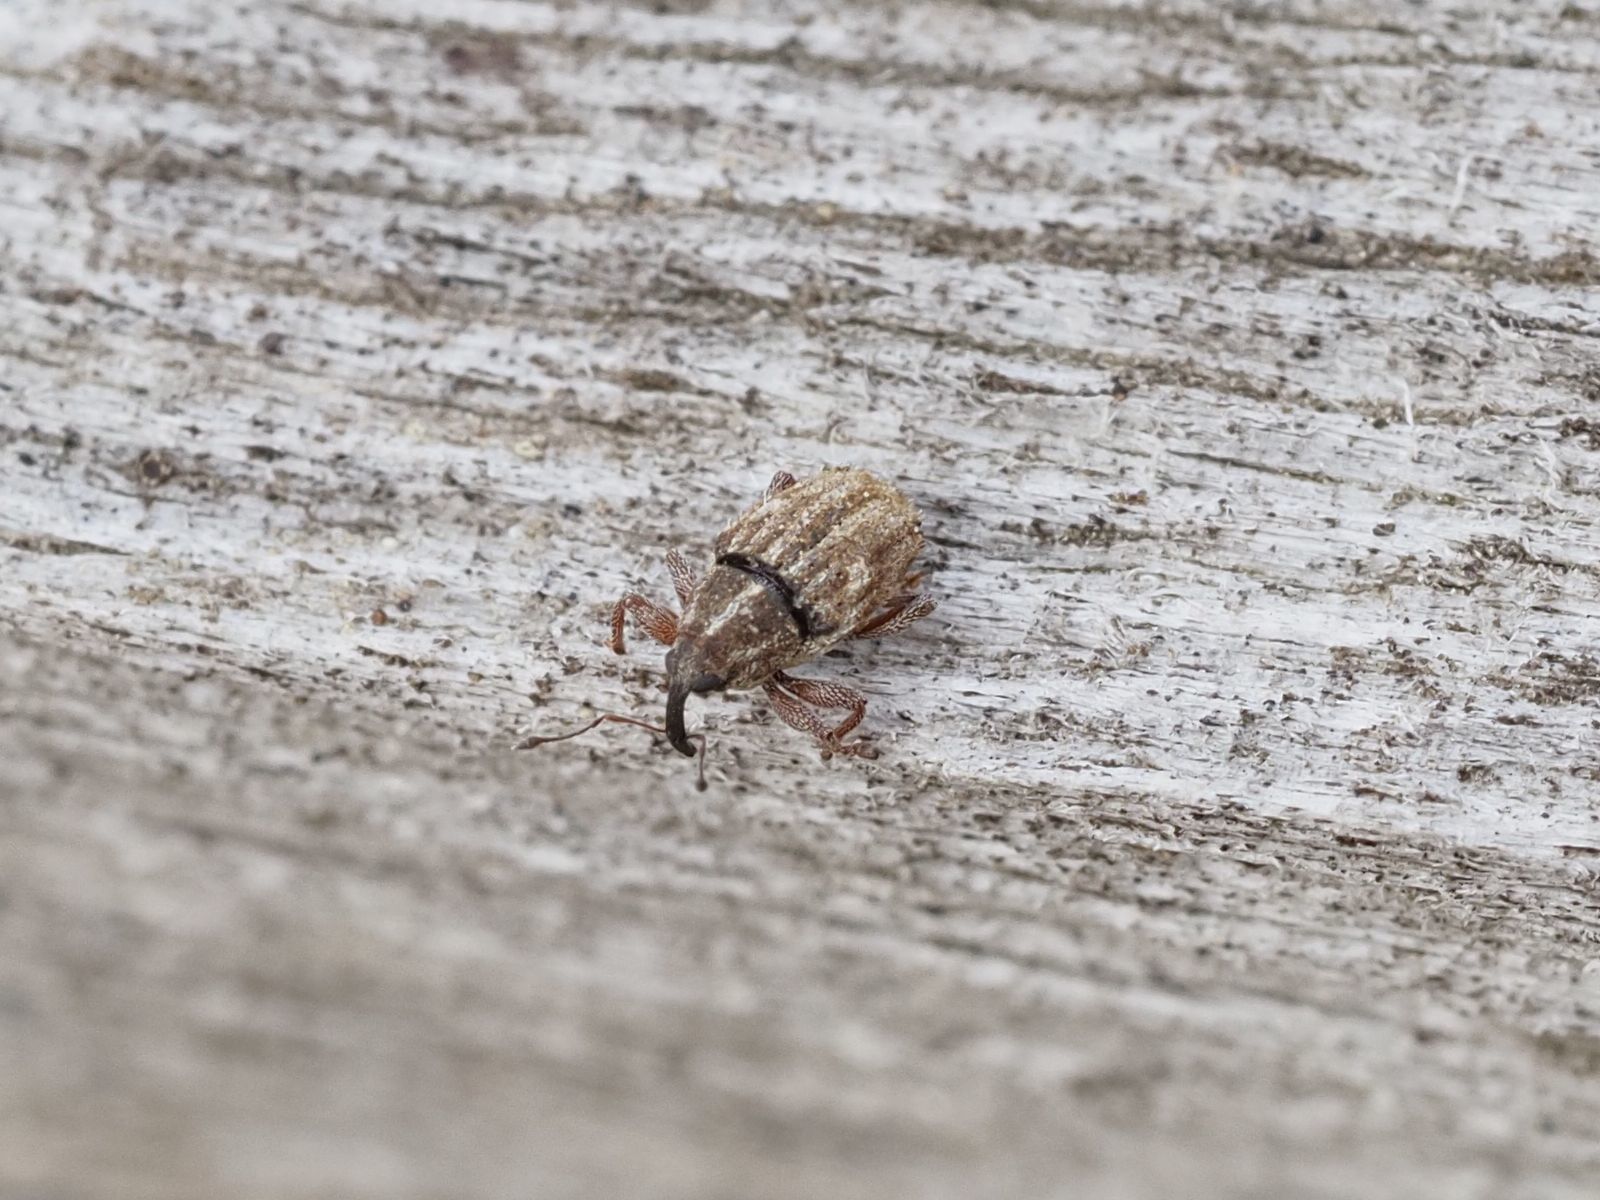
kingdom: Animalia
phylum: Arthropoda
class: Insecta
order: Coleoptera
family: Curculionidae
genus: Trichosirocalus
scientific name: Trichosirocalus troglodytes
